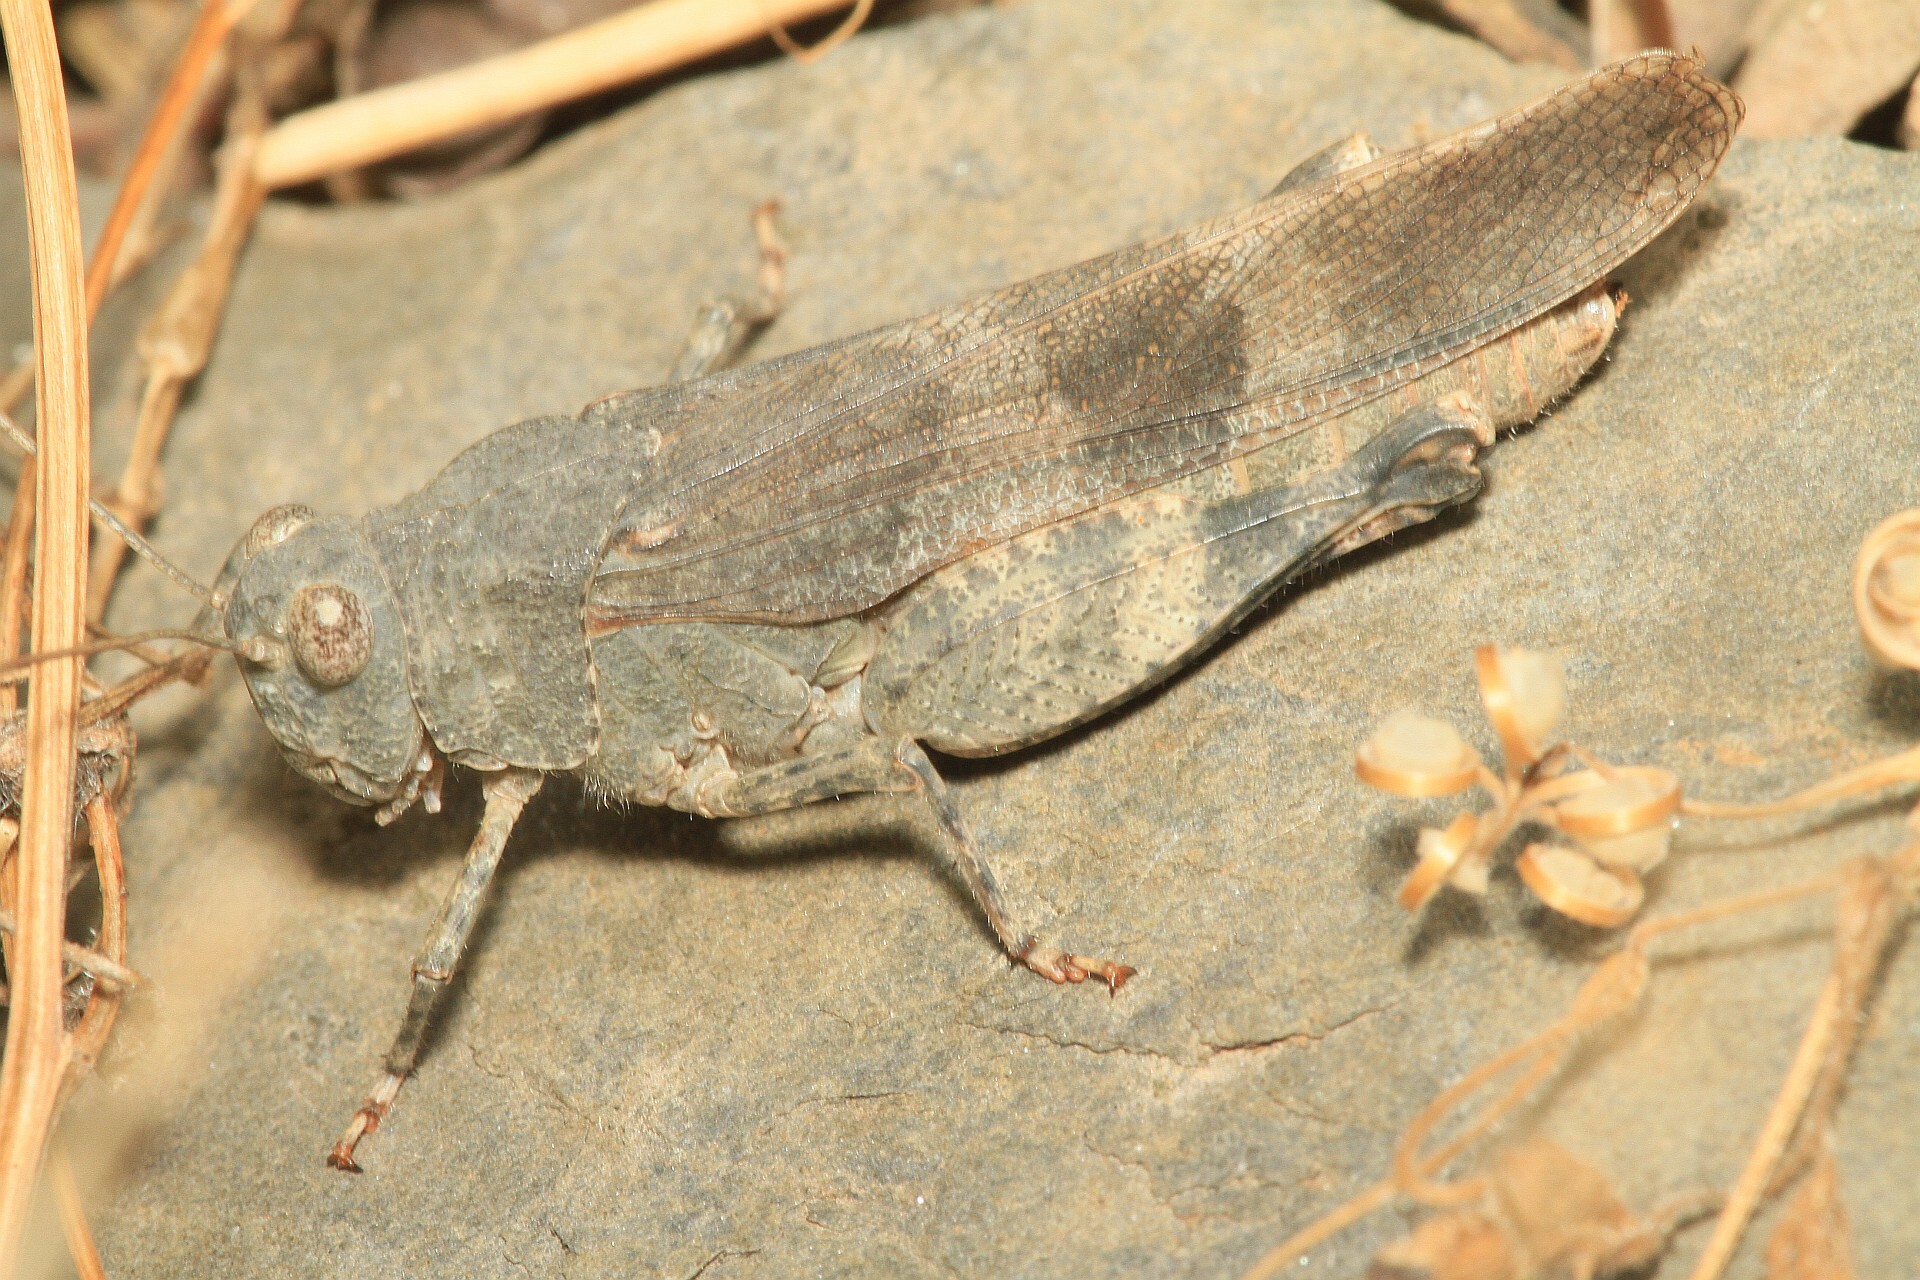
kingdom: Animalia
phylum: Arthropoda
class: Insecta
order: Orthoptera
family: Acrididae
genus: Oedipoda
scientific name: Oedipoda germanica
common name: Red band-winged grasshopper
